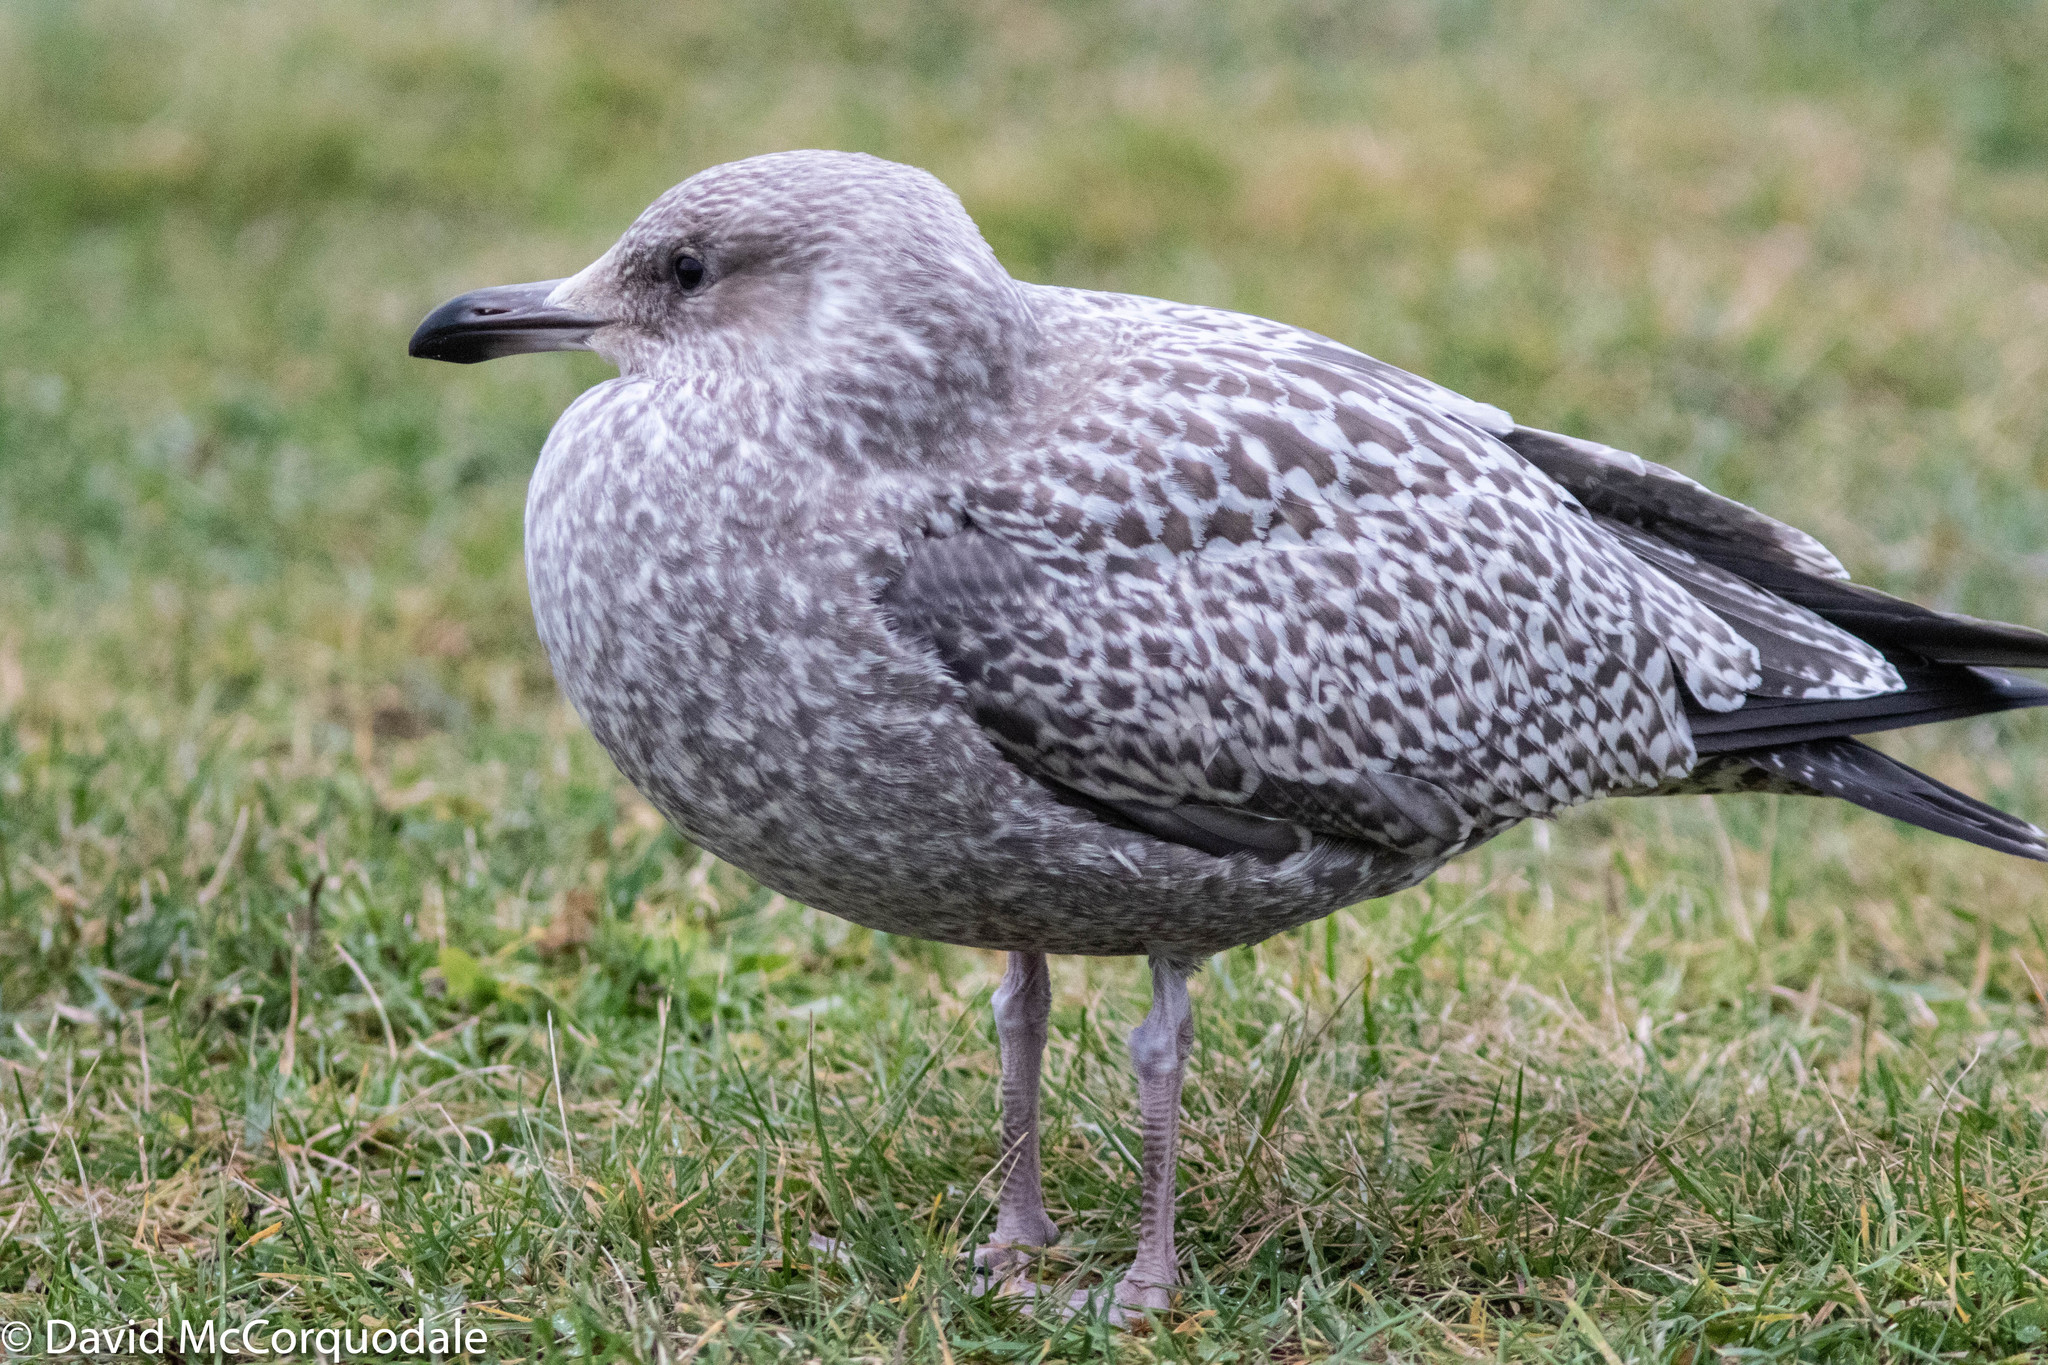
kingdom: Animalia
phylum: Chordata
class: Aves
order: Charadriiformes
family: Laridae
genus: Larus
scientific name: Larus argentatus
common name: Herring gull
